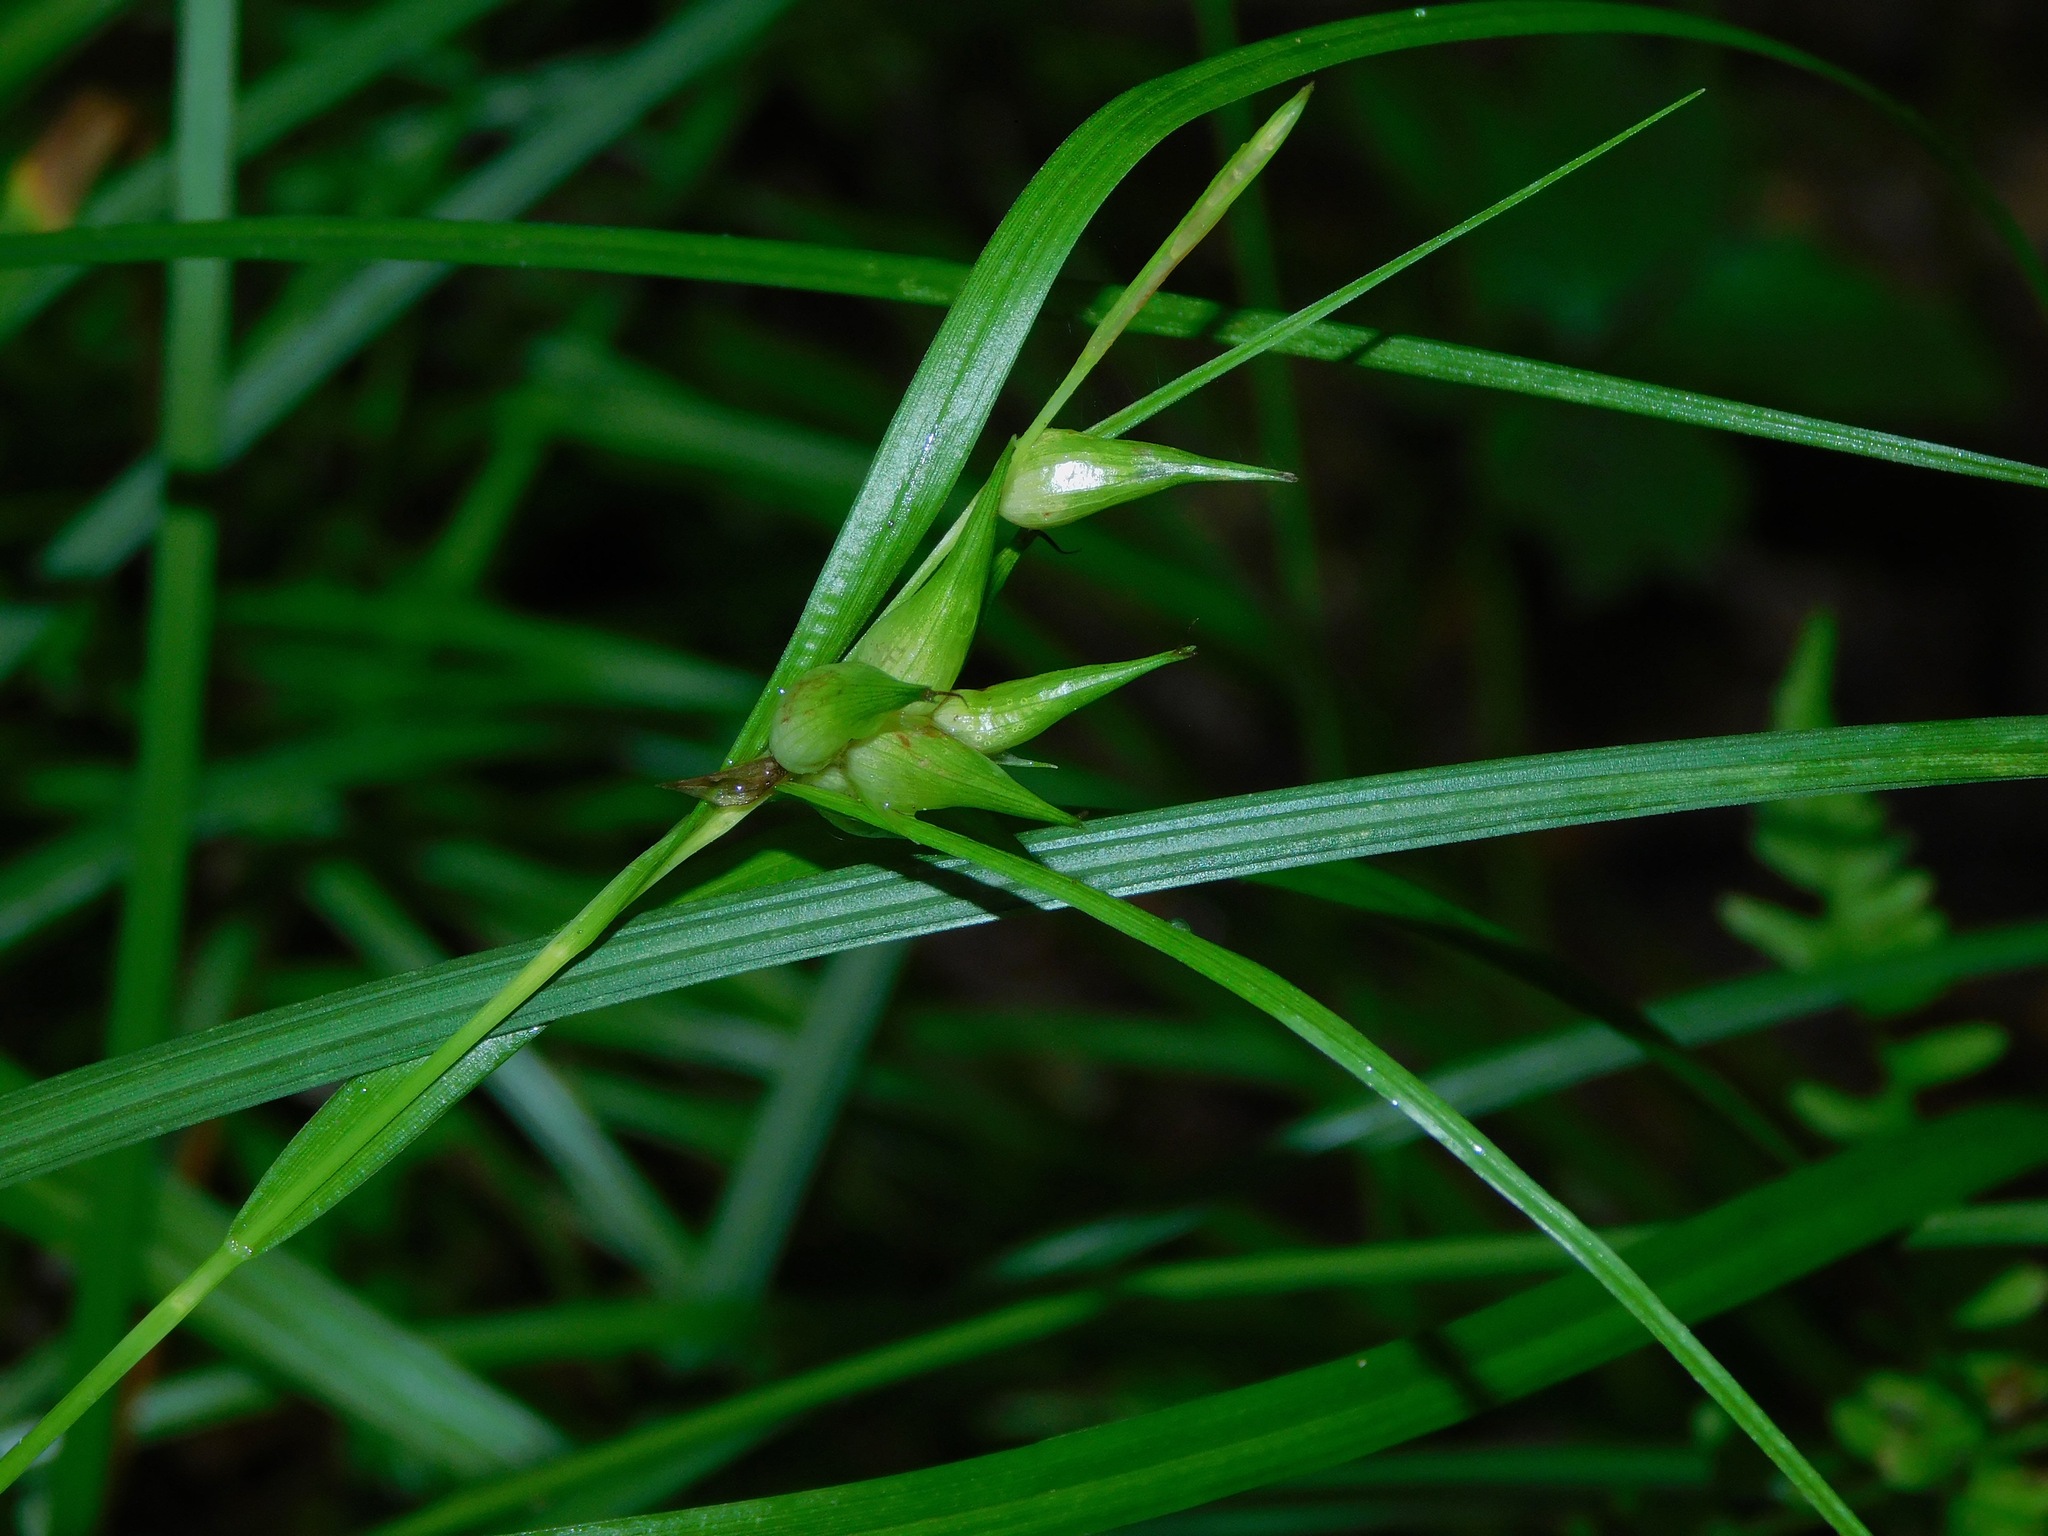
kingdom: Plantae
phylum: Tracheophyta
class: Liliopsida
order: Poales
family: Cyperaceae
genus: Carex
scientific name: Carex intumescens
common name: Greater bladder sedge
